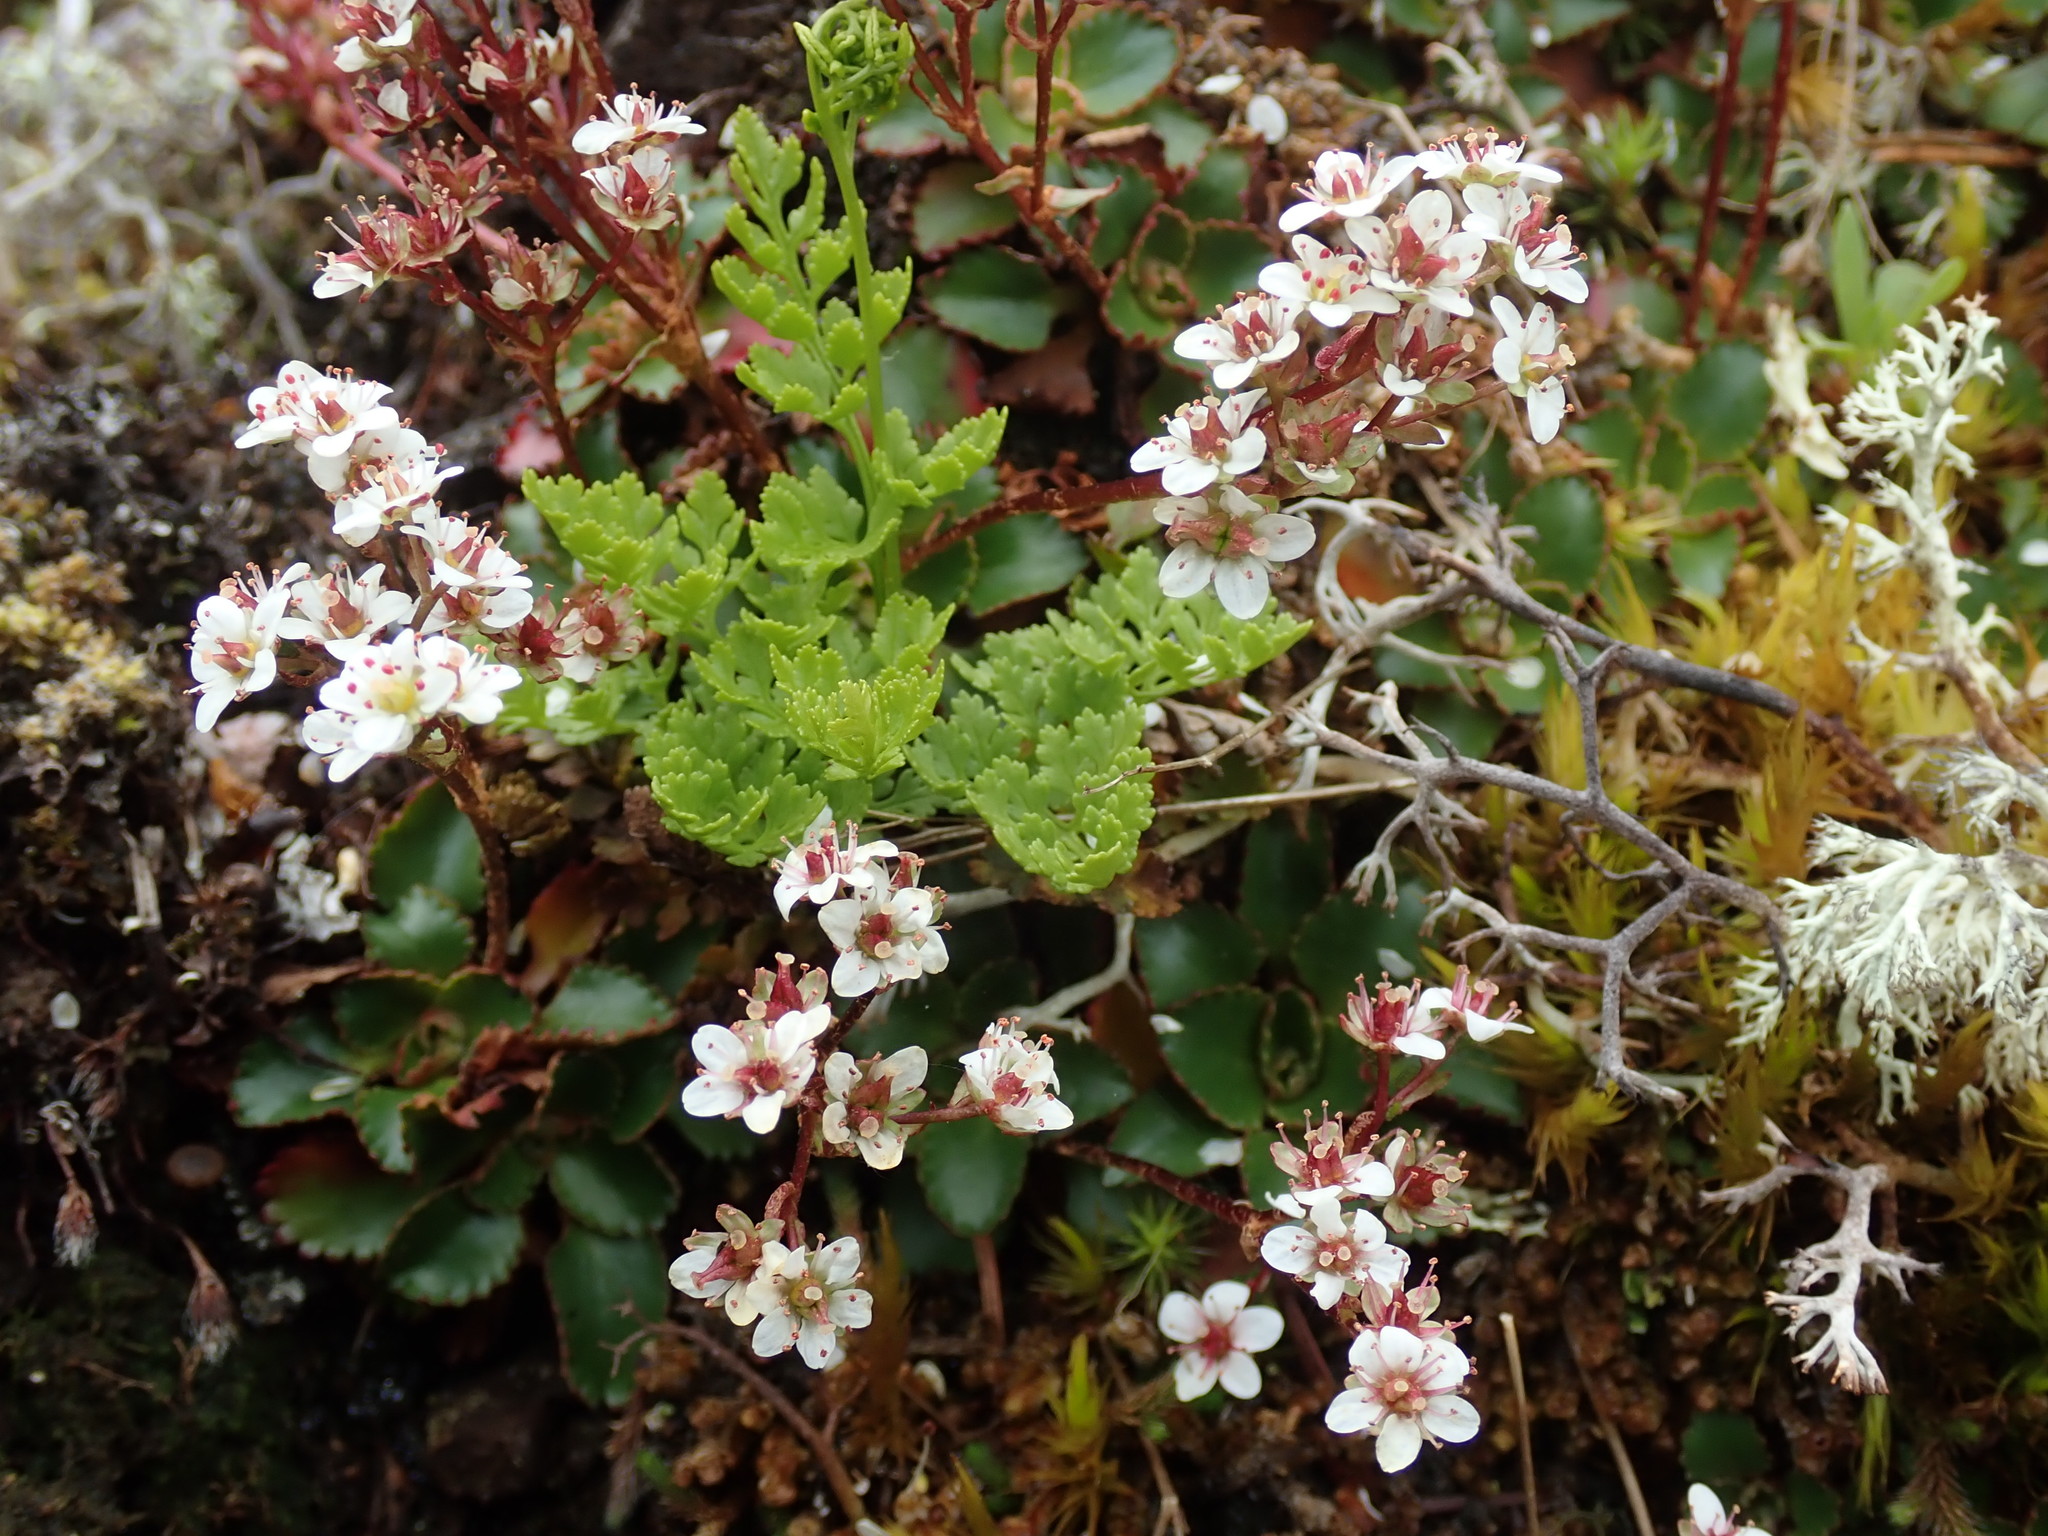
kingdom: Plantae
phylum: Tracheophyta
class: Magnoliopsida
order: Saxifragales
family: Saxifragaceae
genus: Micranthes
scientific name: Micranthes occidentalis
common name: Alberta saxifrage
